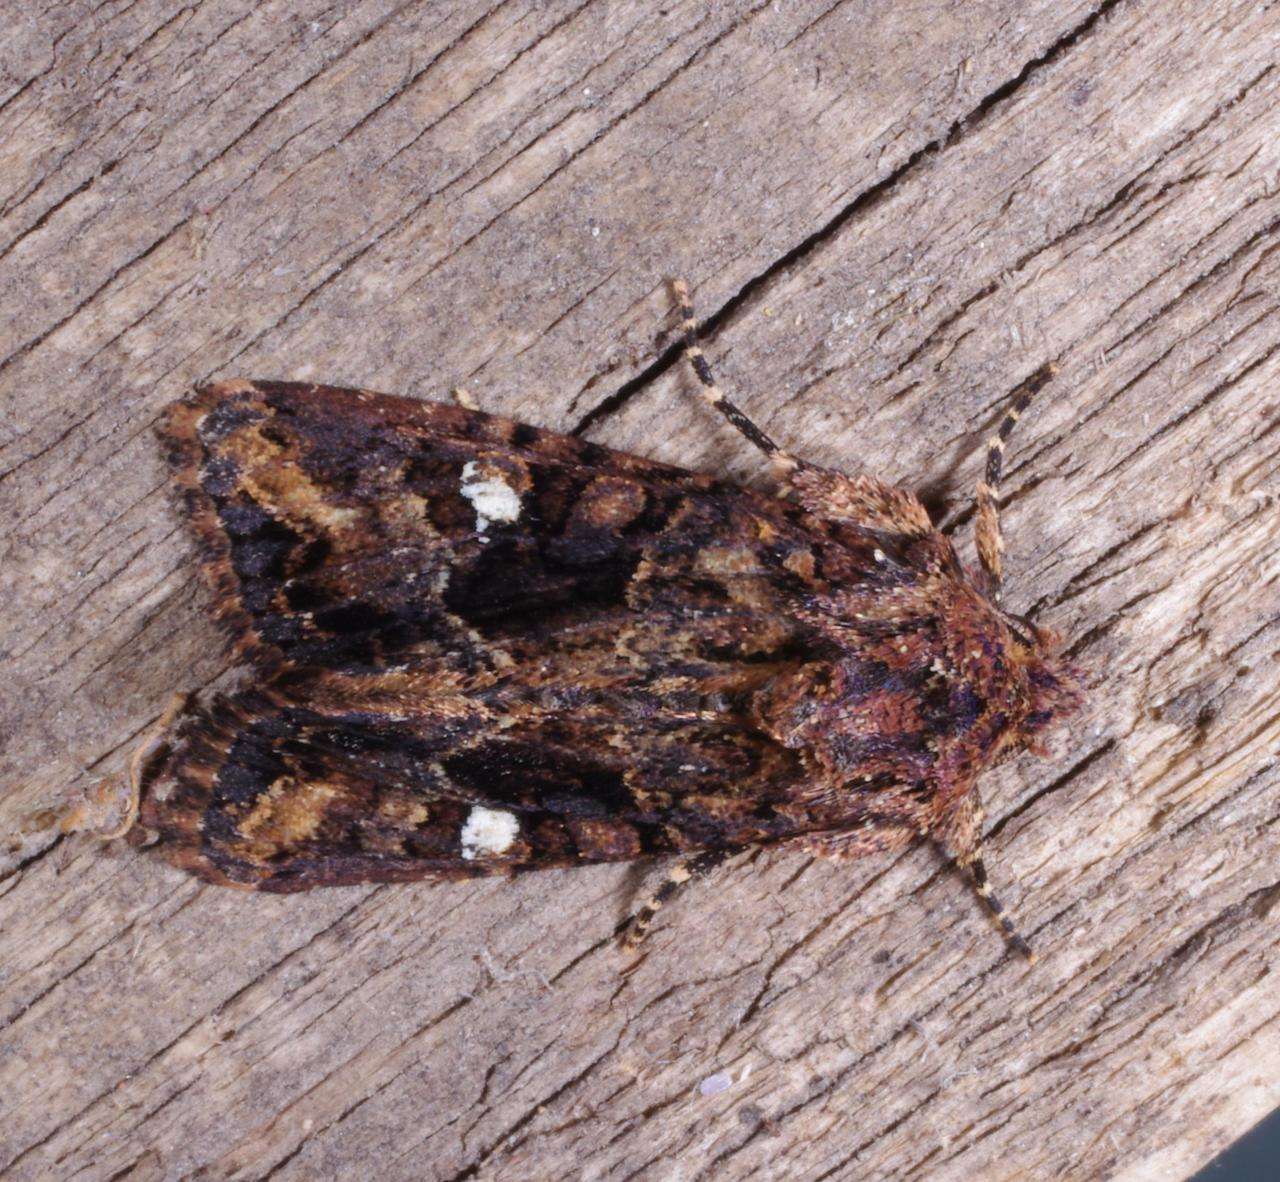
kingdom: Animalia
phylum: Arthropoda
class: Insecta
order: Lepidoptera
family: Noctuidae
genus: Neumichtis
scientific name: Neumichtis saliaris
